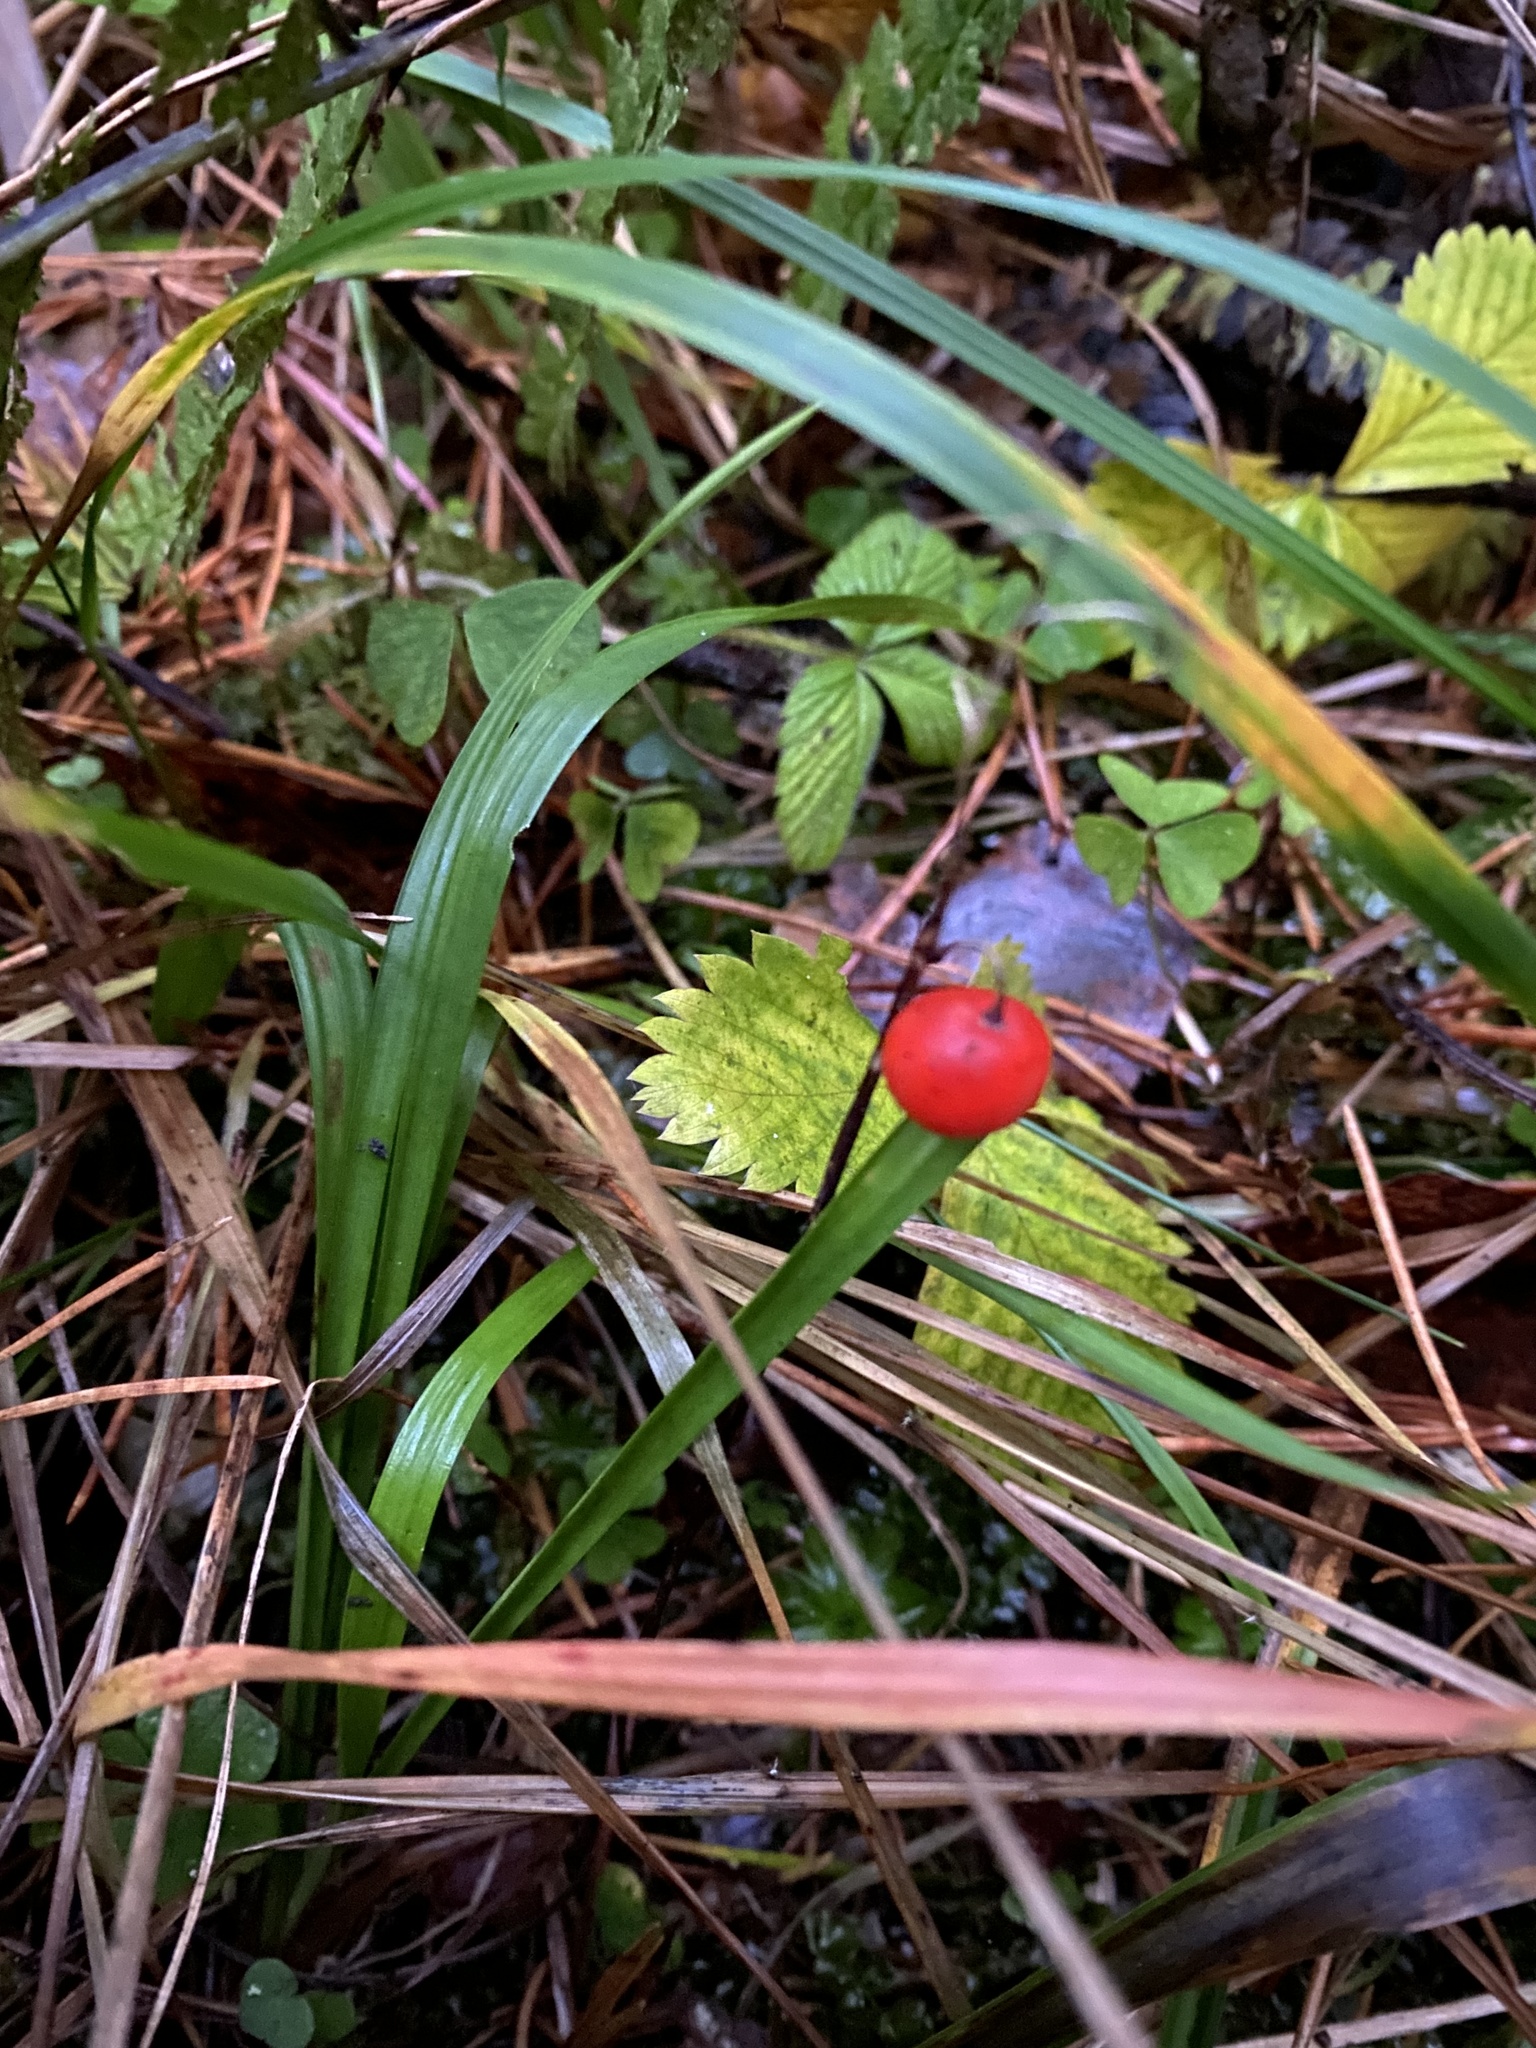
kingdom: Plantae
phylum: Tracheophyta
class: Liliopsida
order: Asparagales
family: Asparagaceae
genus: Convallaria
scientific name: Convallaria majalis
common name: Lily-of-the-valley
